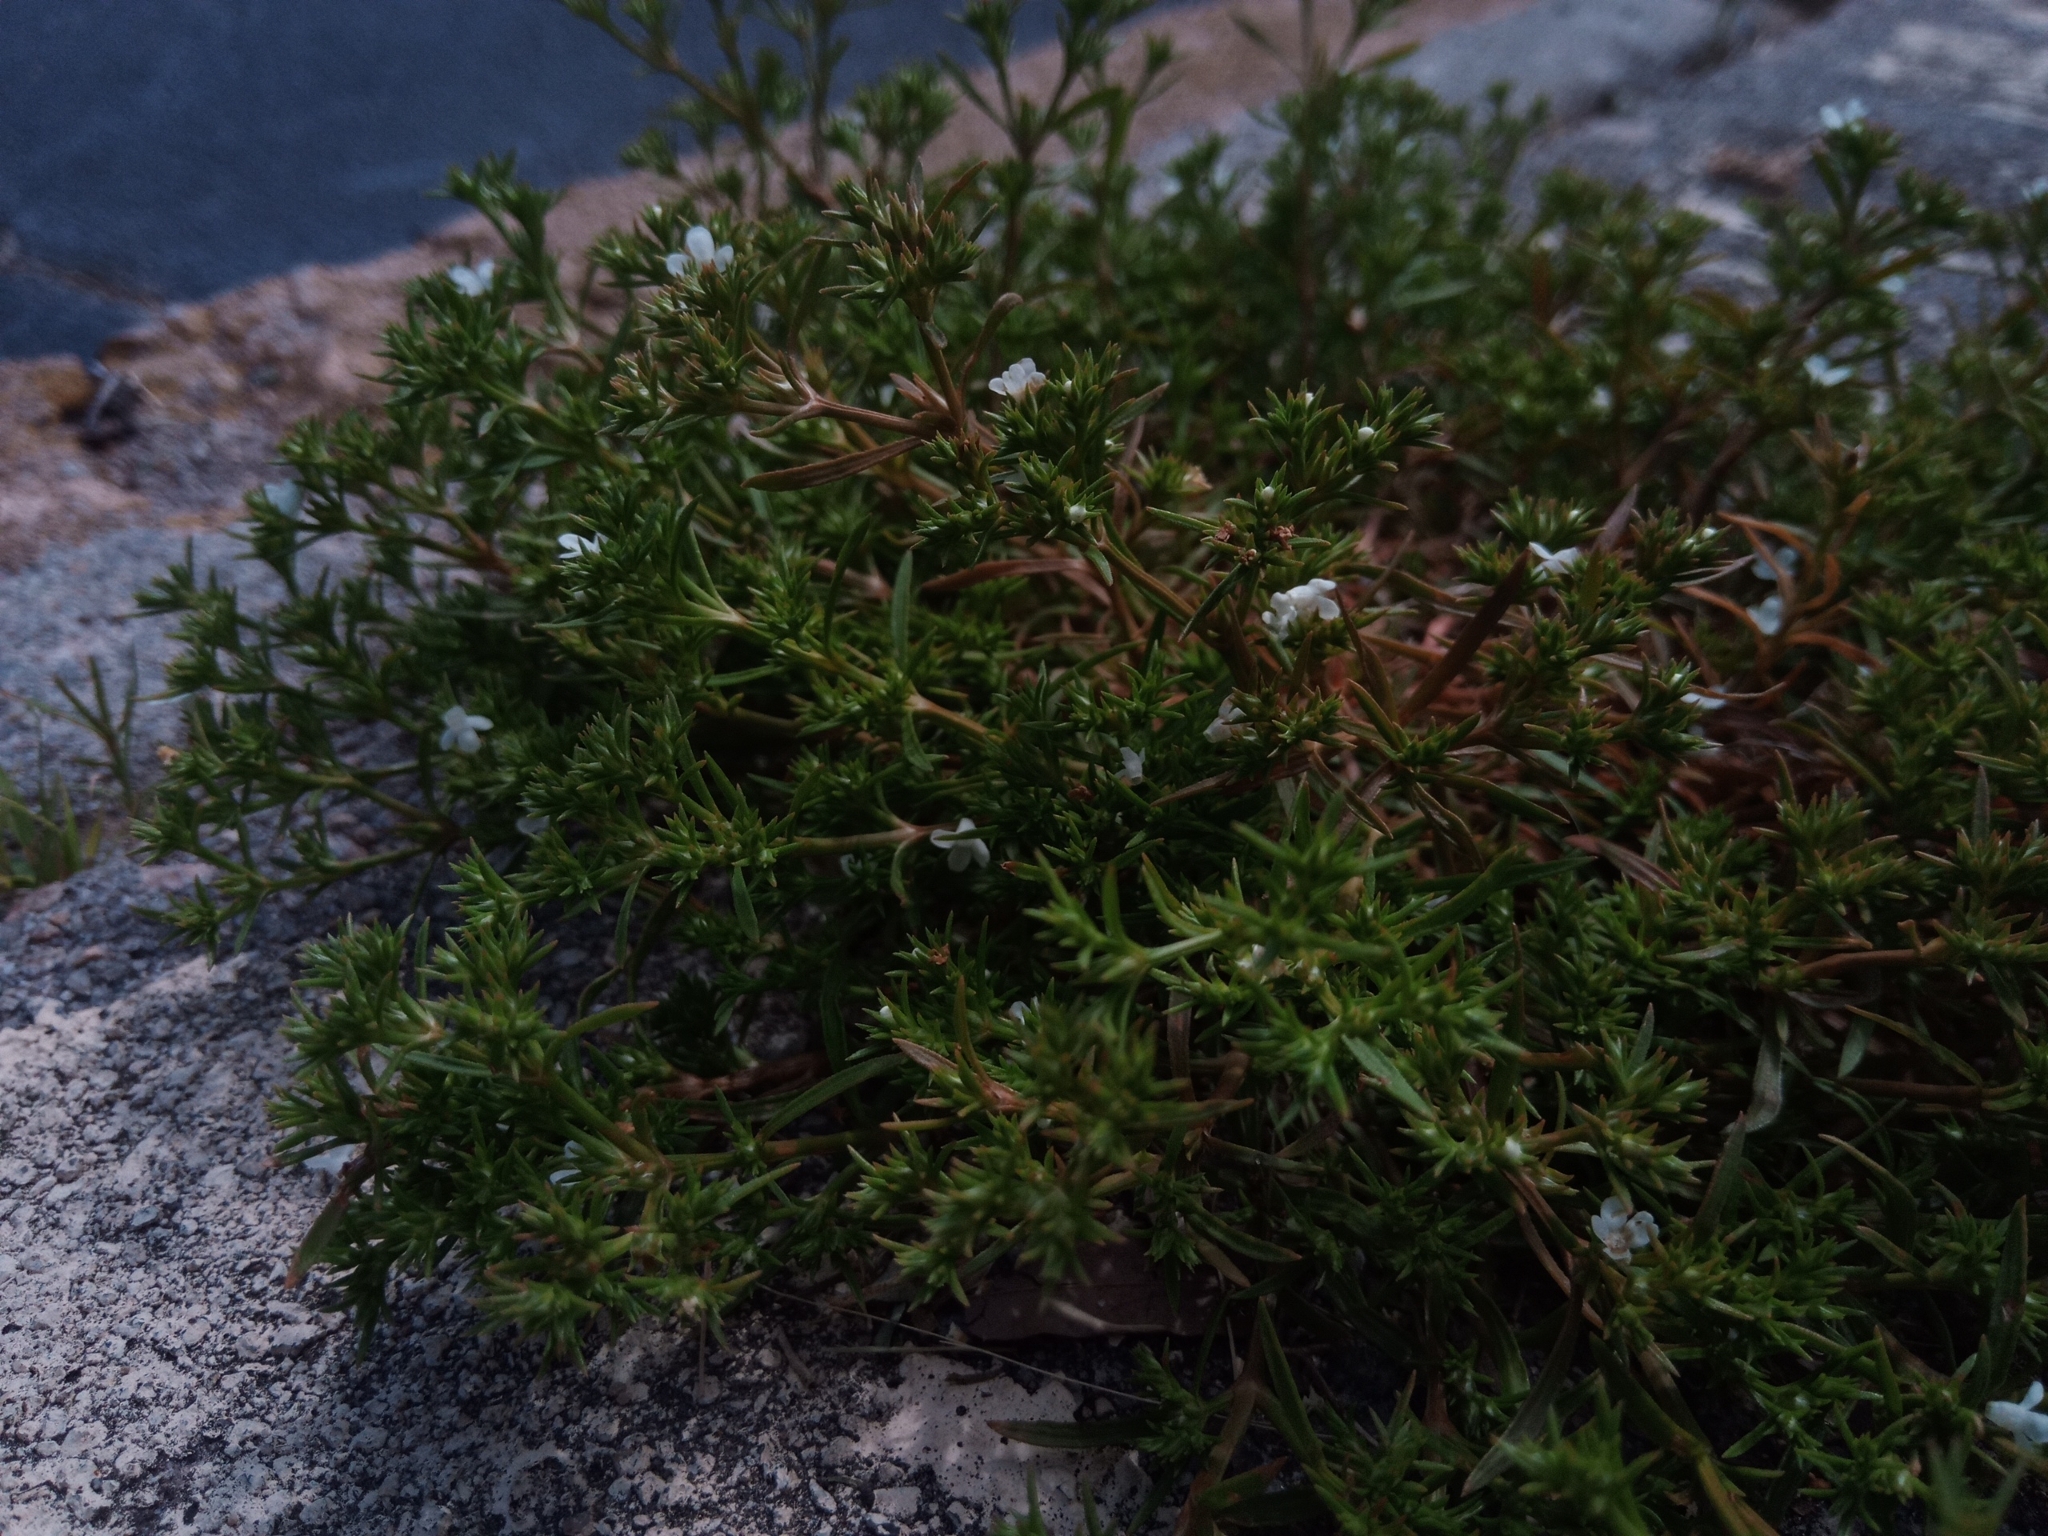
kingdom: Plantae
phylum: Tracheophyta
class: Magnoliopsida
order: Lamiales
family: Tetrachondraceae
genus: Polypremum
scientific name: Polypremum procumbens
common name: Juniper-leaf
